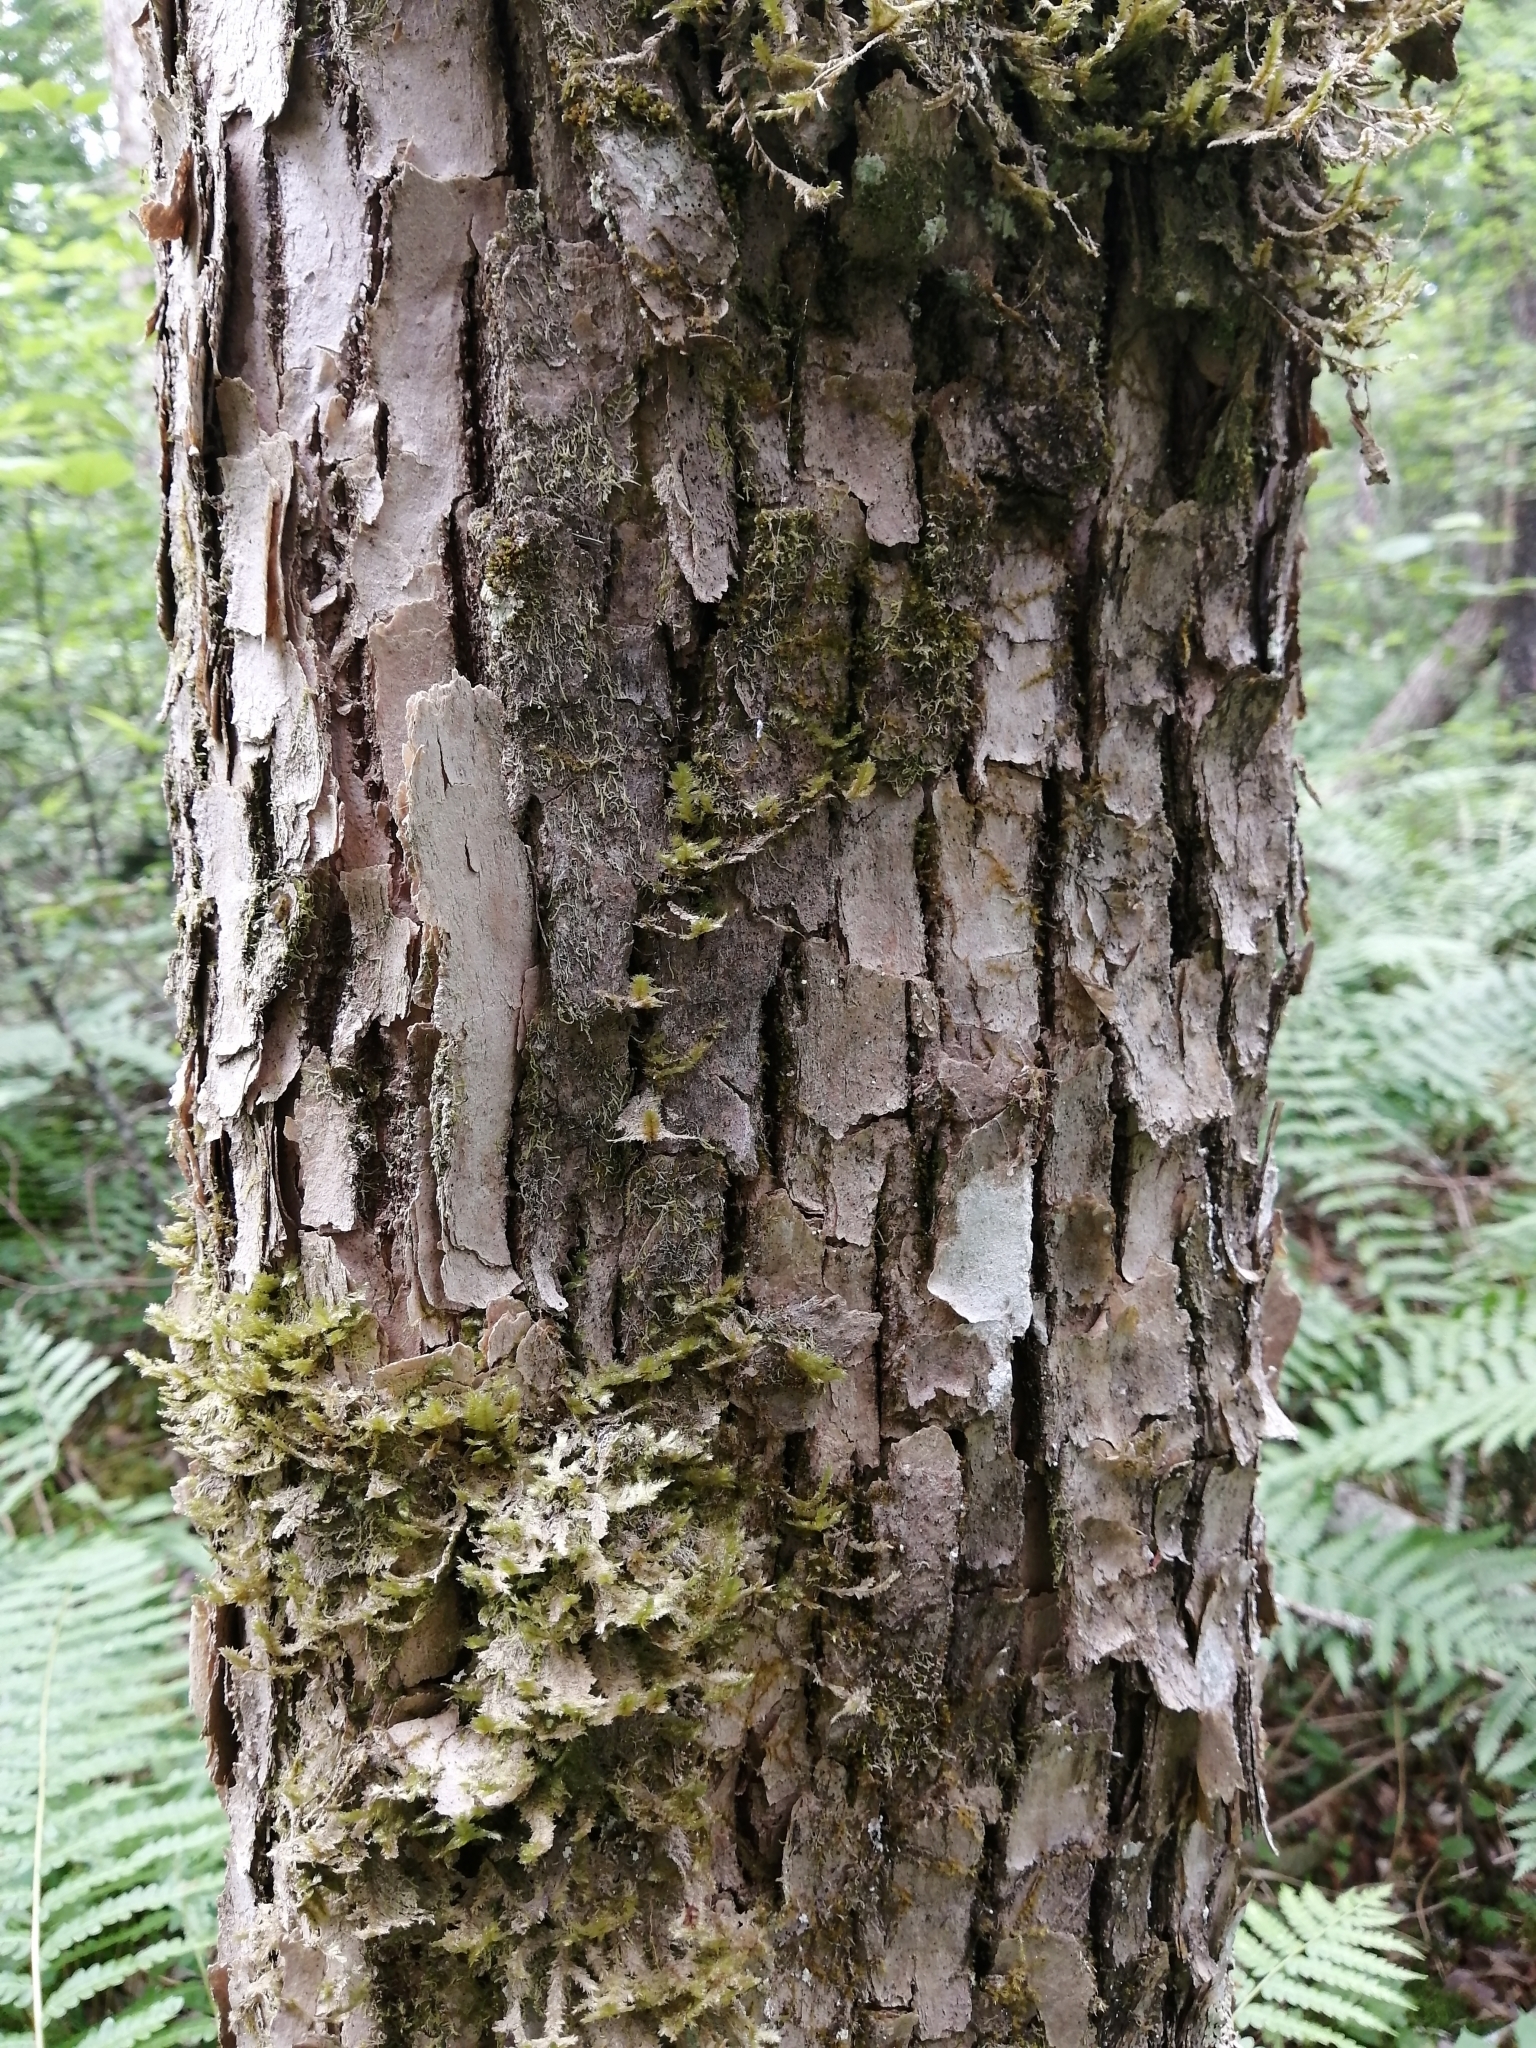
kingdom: Plantae
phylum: Tracheophyta
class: Magnoliopsida
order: Lamiales
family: Oleaceae
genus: Fraxinus
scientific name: Fraxinus americana
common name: White ash
